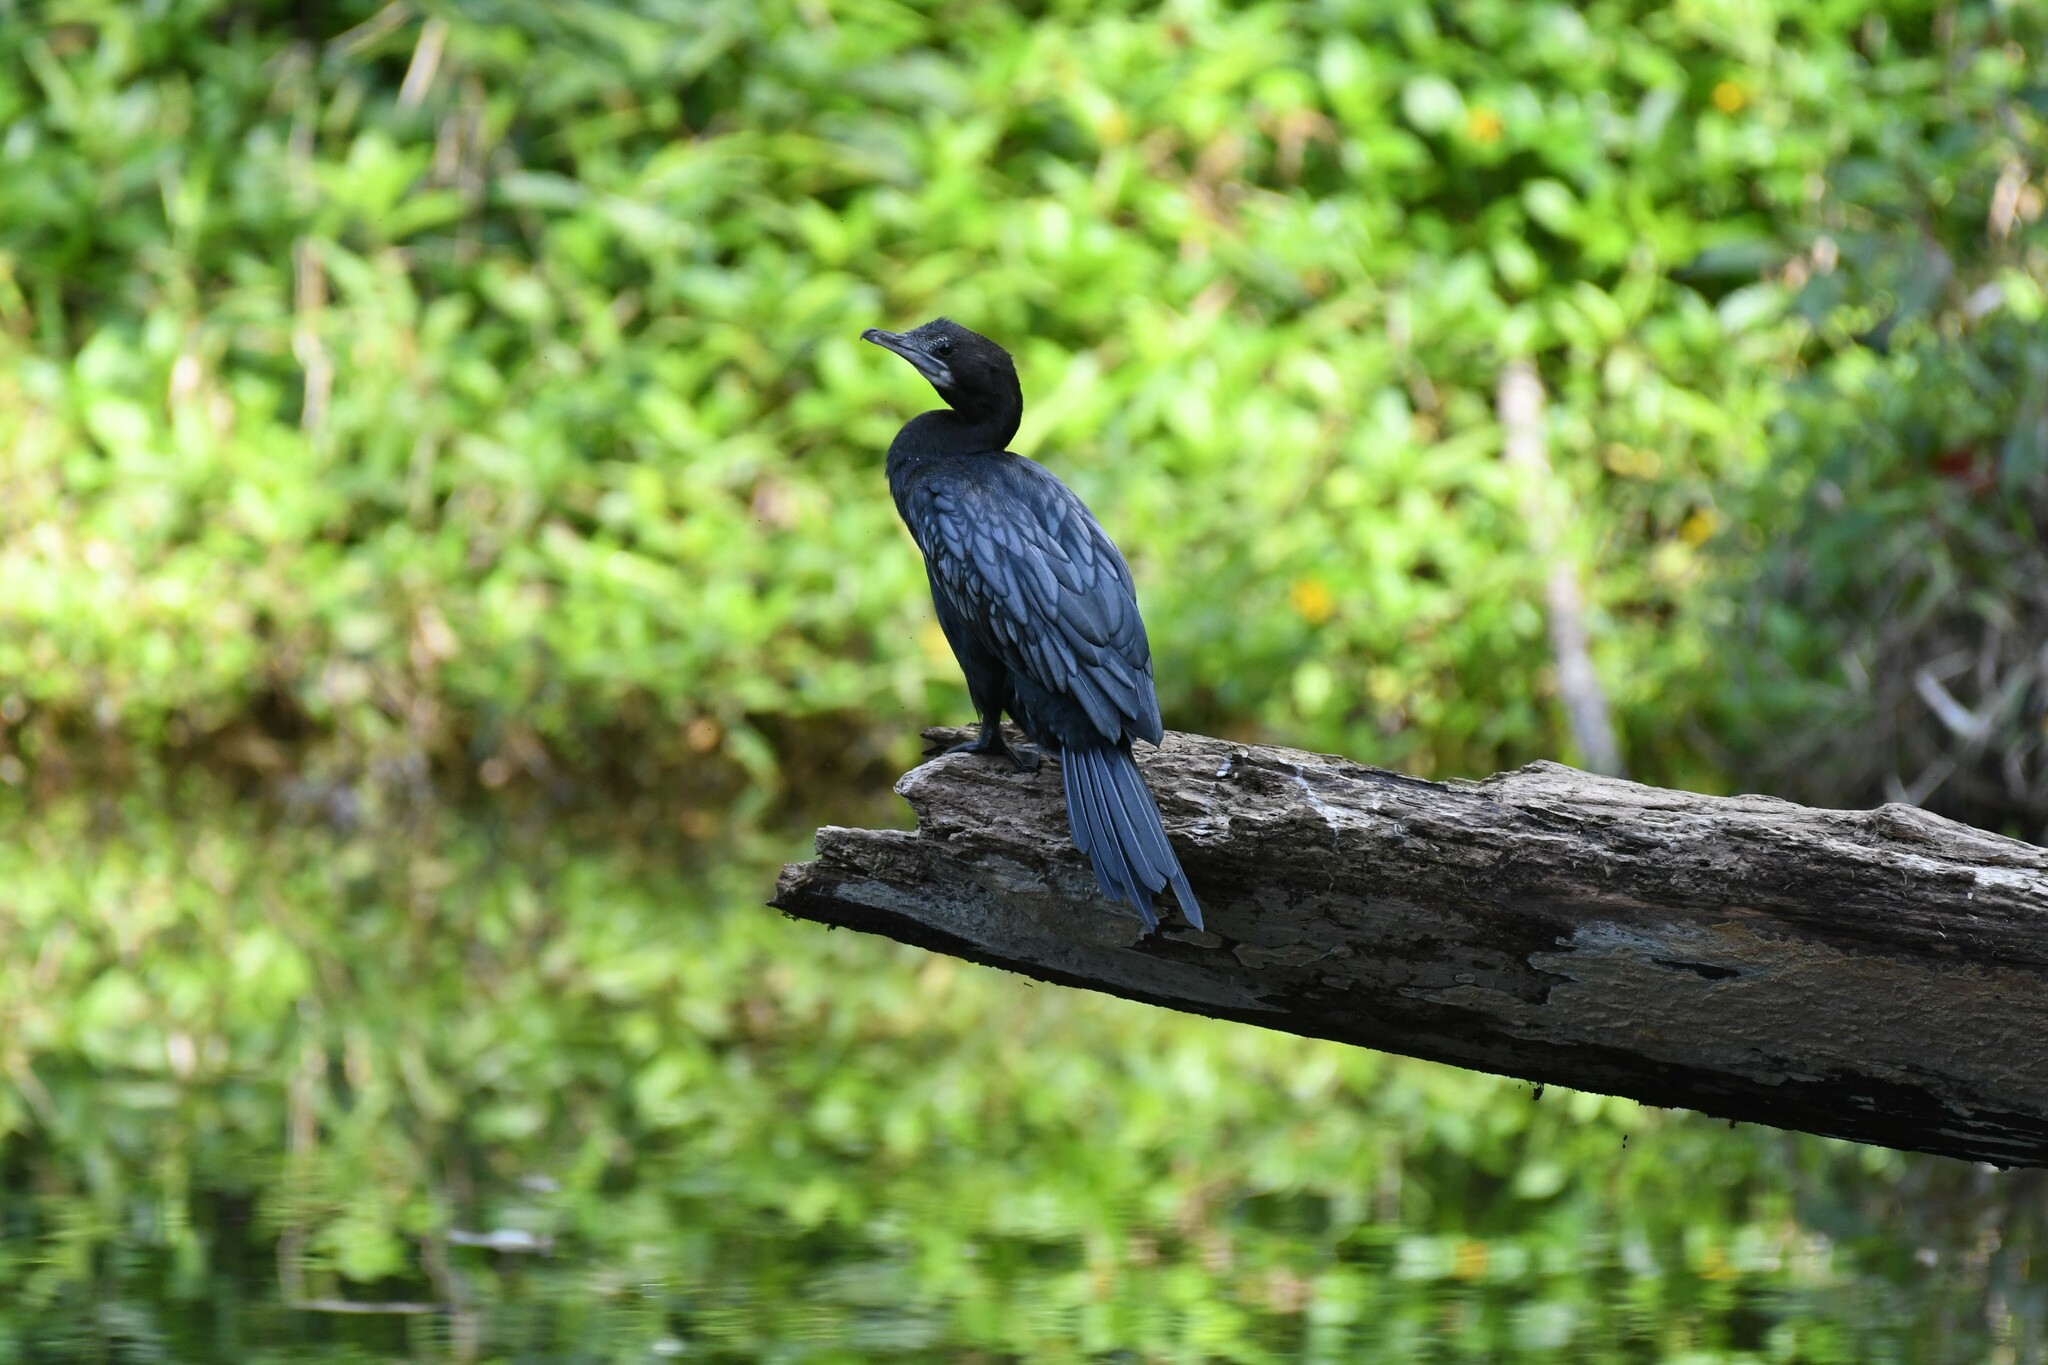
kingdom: Animalia
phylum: Chordata
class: Aves
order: Suliformes
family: Phalacrocoracidae
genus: Microcarbo
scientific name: Microcarbo niger
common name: Little cormorant
